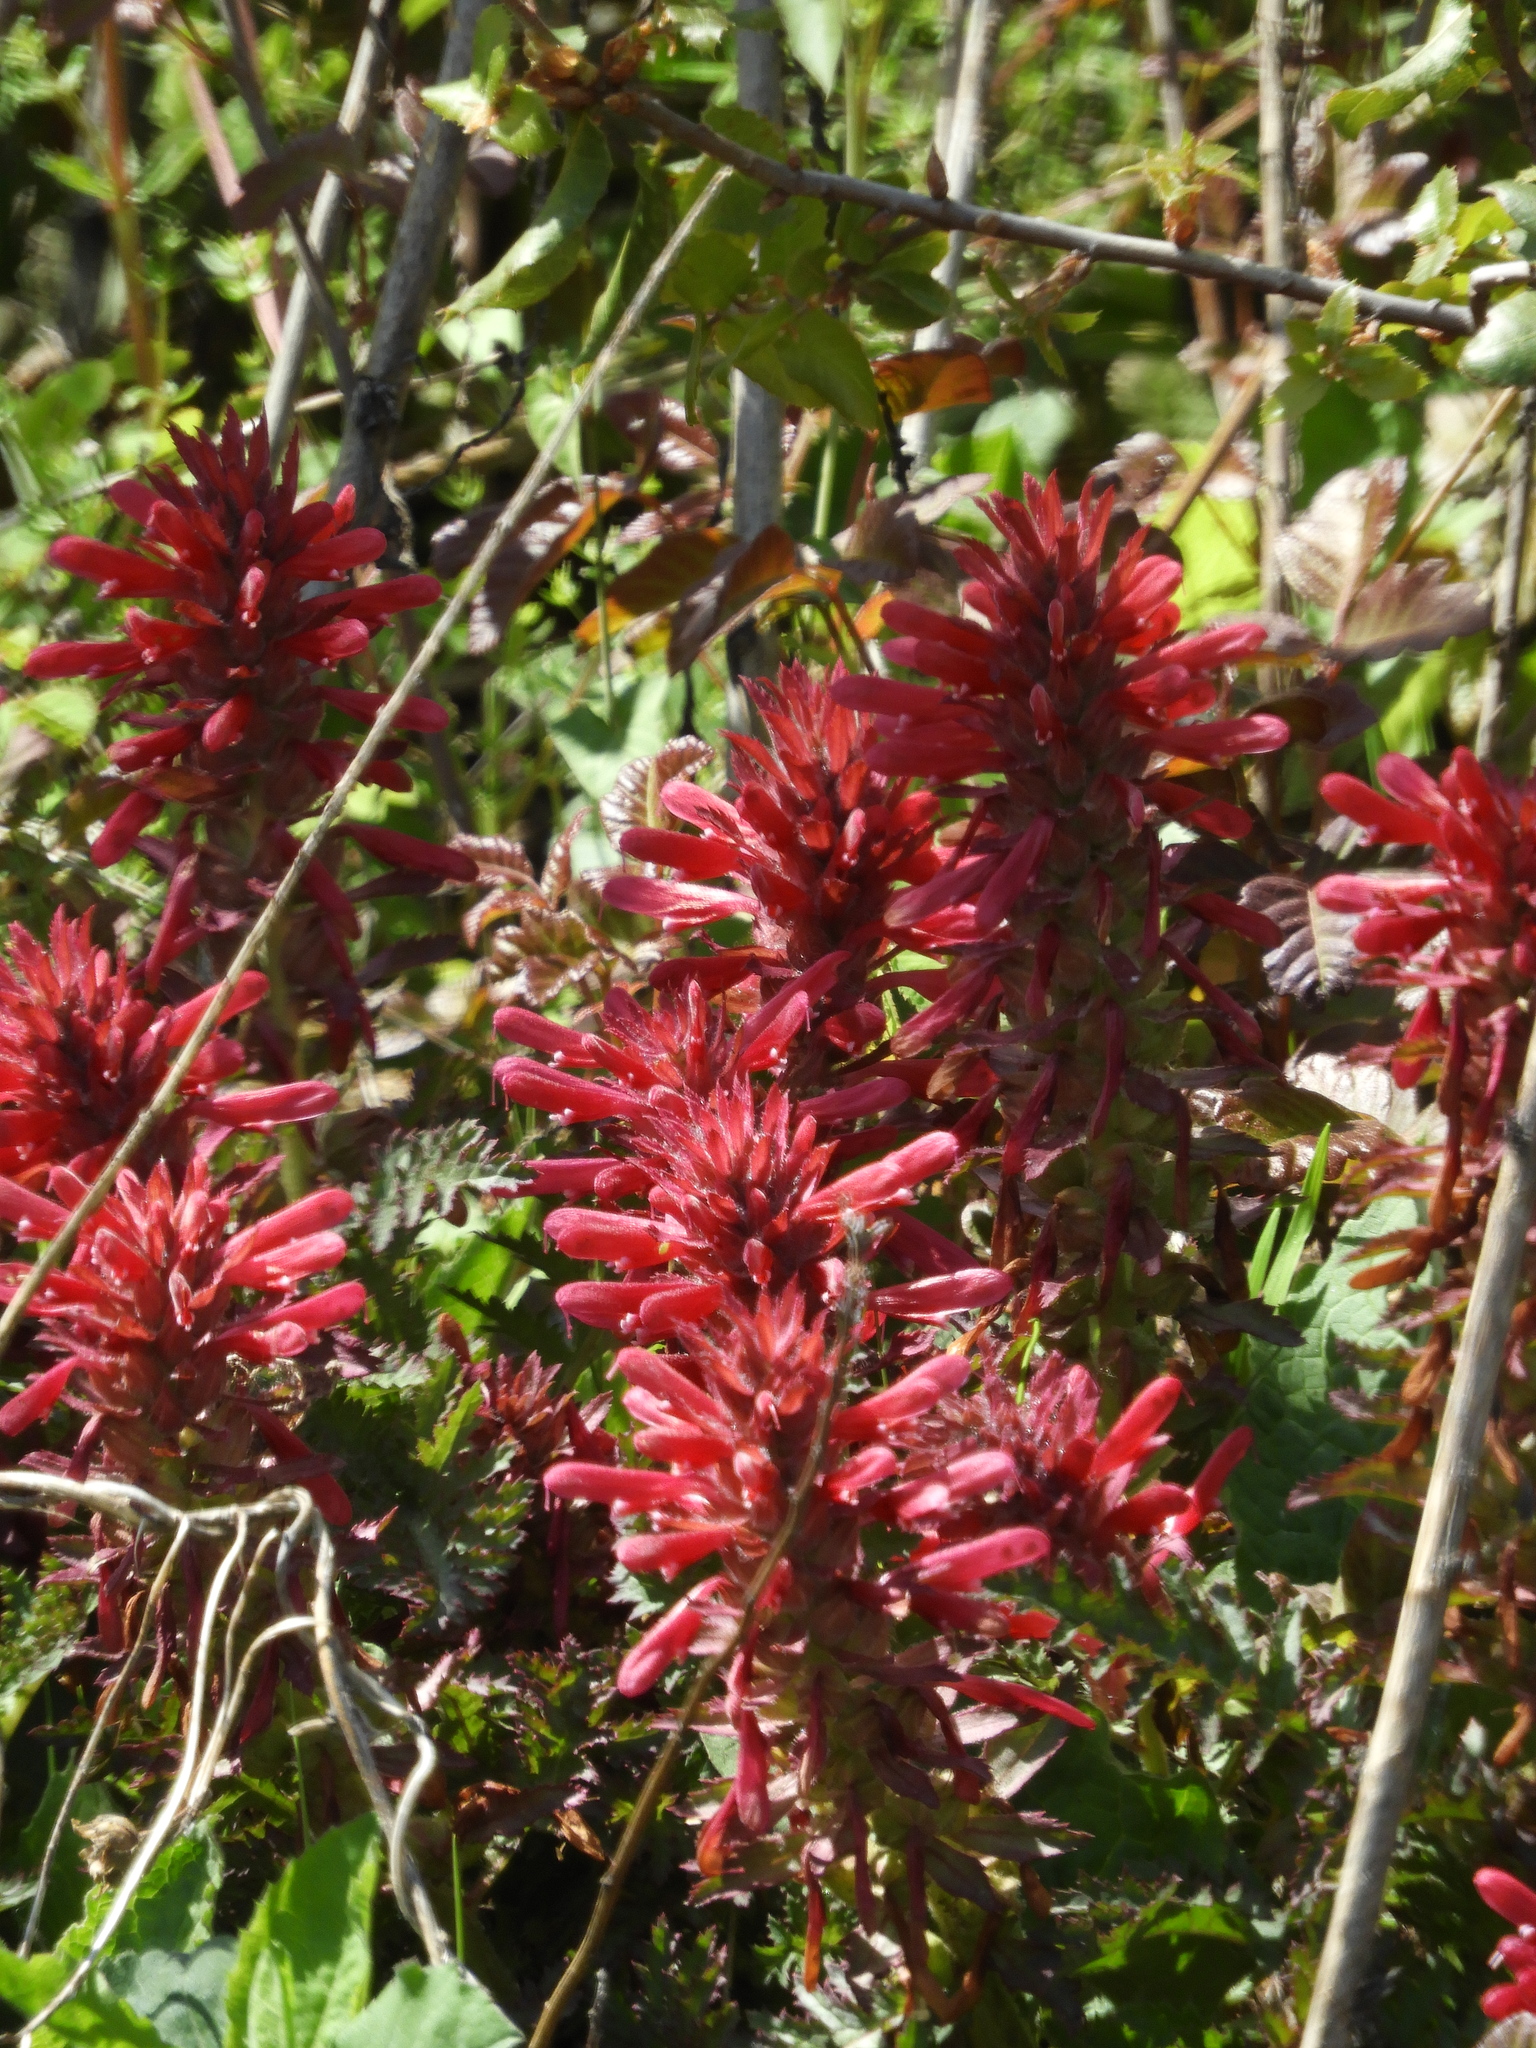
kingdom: Plantae
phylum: Tracheophyta
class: Magnoliopsida
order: Lamiales
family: Orobanchaceae
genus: Pedicularis
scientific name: Pedicularis densiflora
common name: Indian warrior
